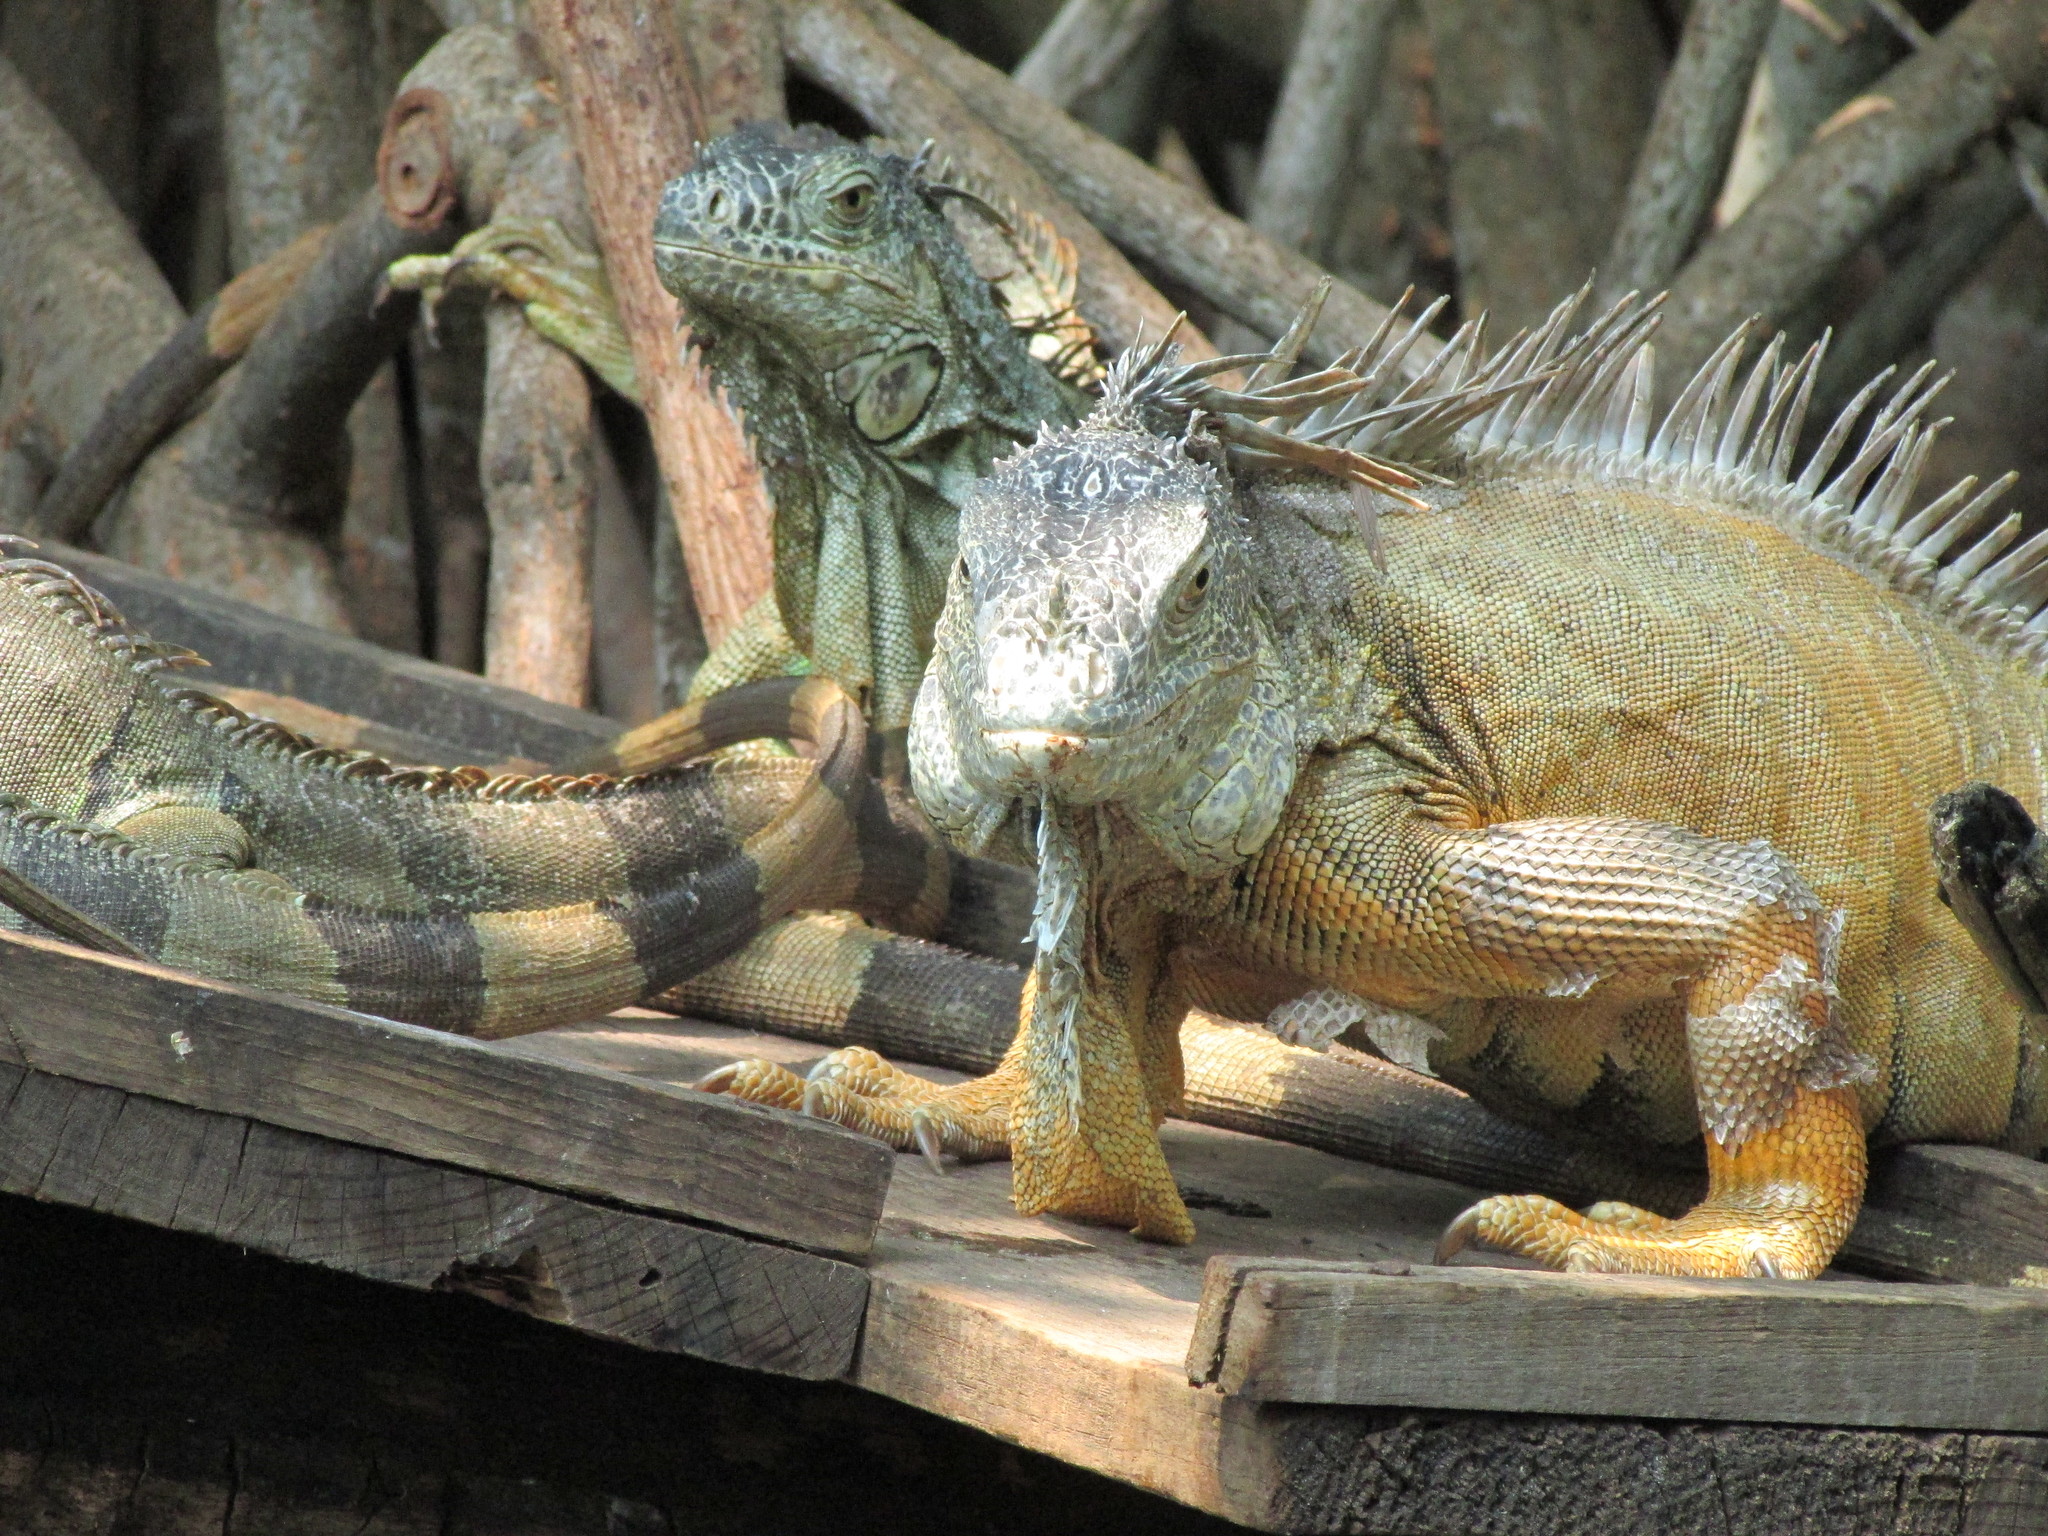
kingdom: Animalia
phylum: Chordata
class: Squamata
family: Iguanidae
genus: Iguana
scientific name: Iguana iguana
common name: Green iguana
